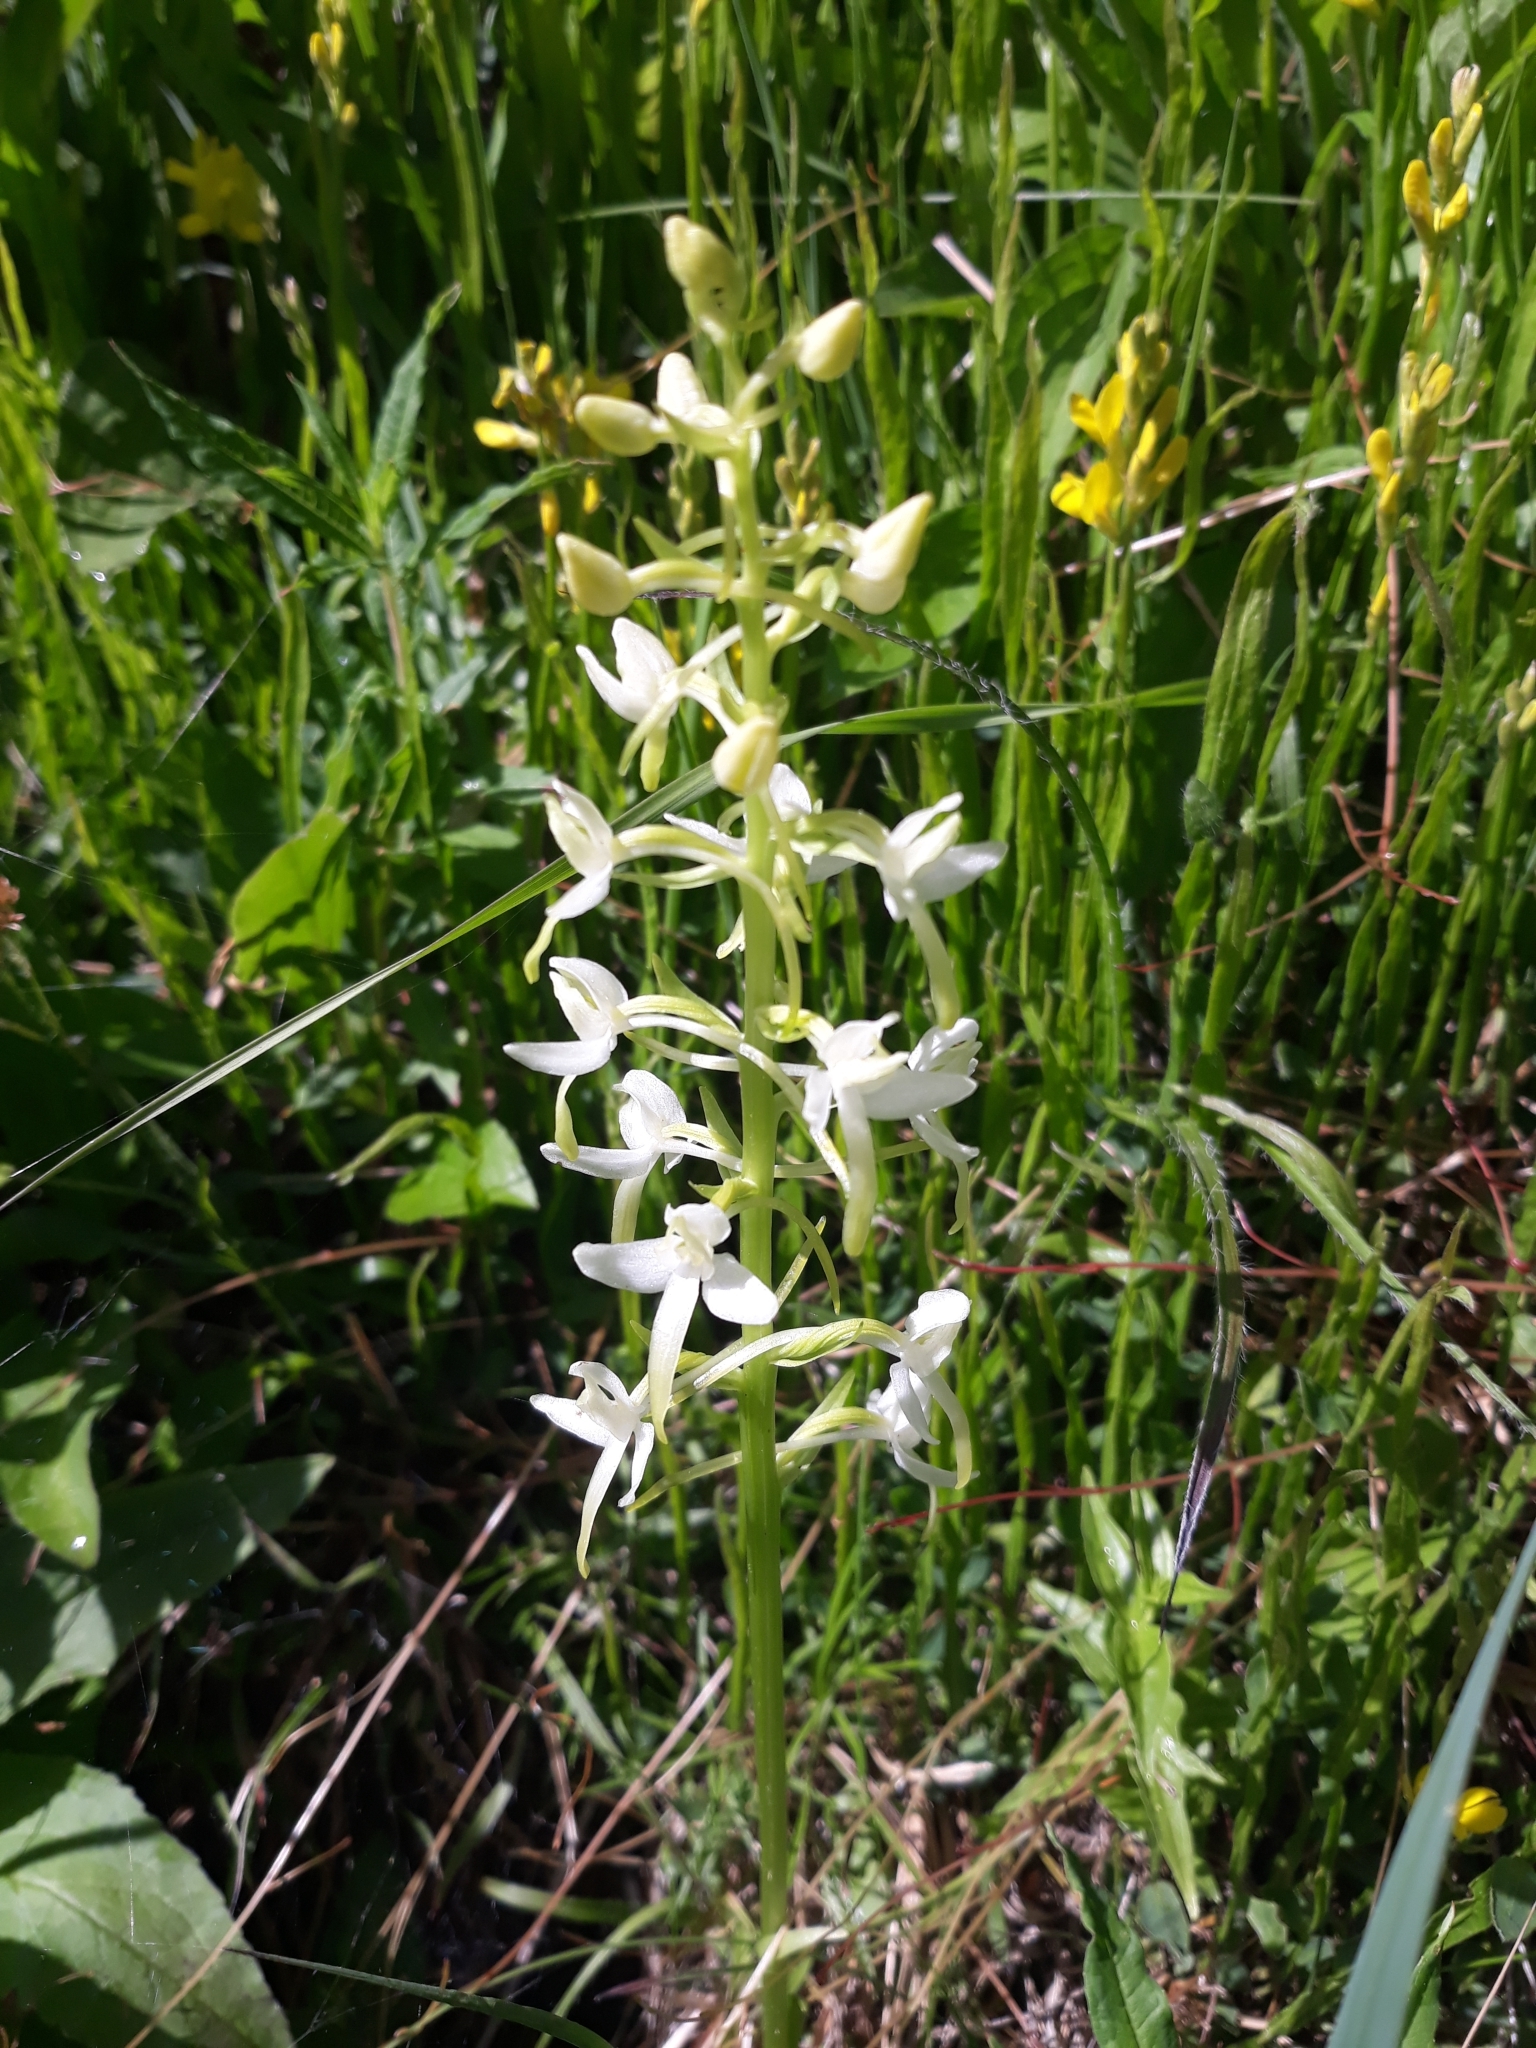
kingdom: Plantae
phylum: Tracheophyta
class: Liliopsida
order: Asparagales
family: Orchidaceae
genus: Platanthera
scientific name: Platanthera bifolia
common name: Lesser butterfly-orchid
